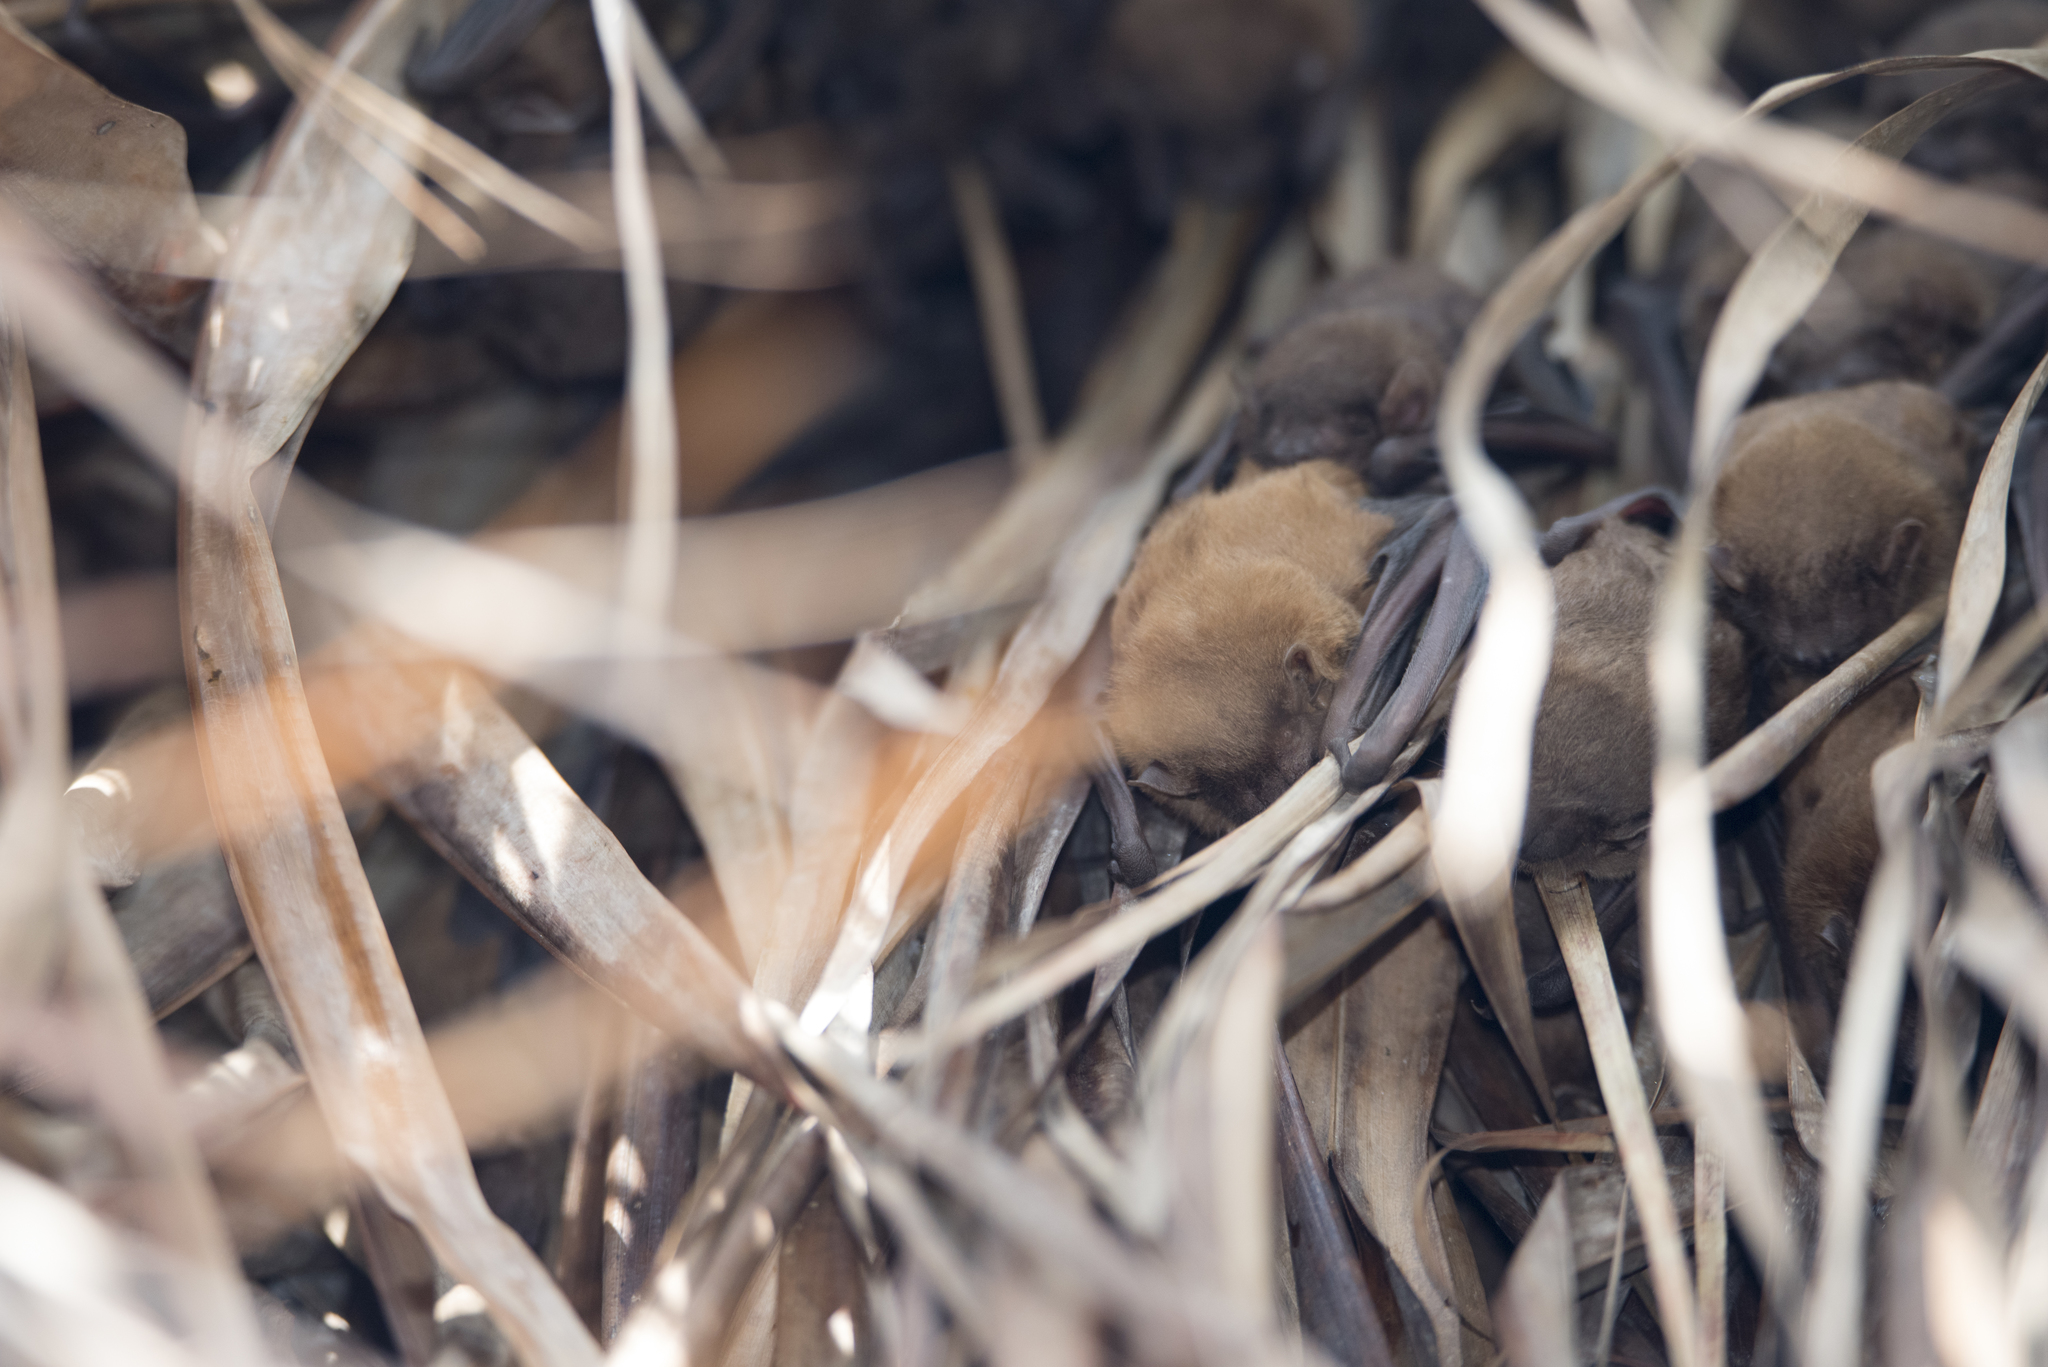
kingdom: Animalia
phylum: Chordata
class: Mammalia
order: Chiroptera
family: Vespertilionidae
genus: Scotophilus
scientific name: Scotophilus kuhlii
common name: Lesser asiatic yellow house bat
